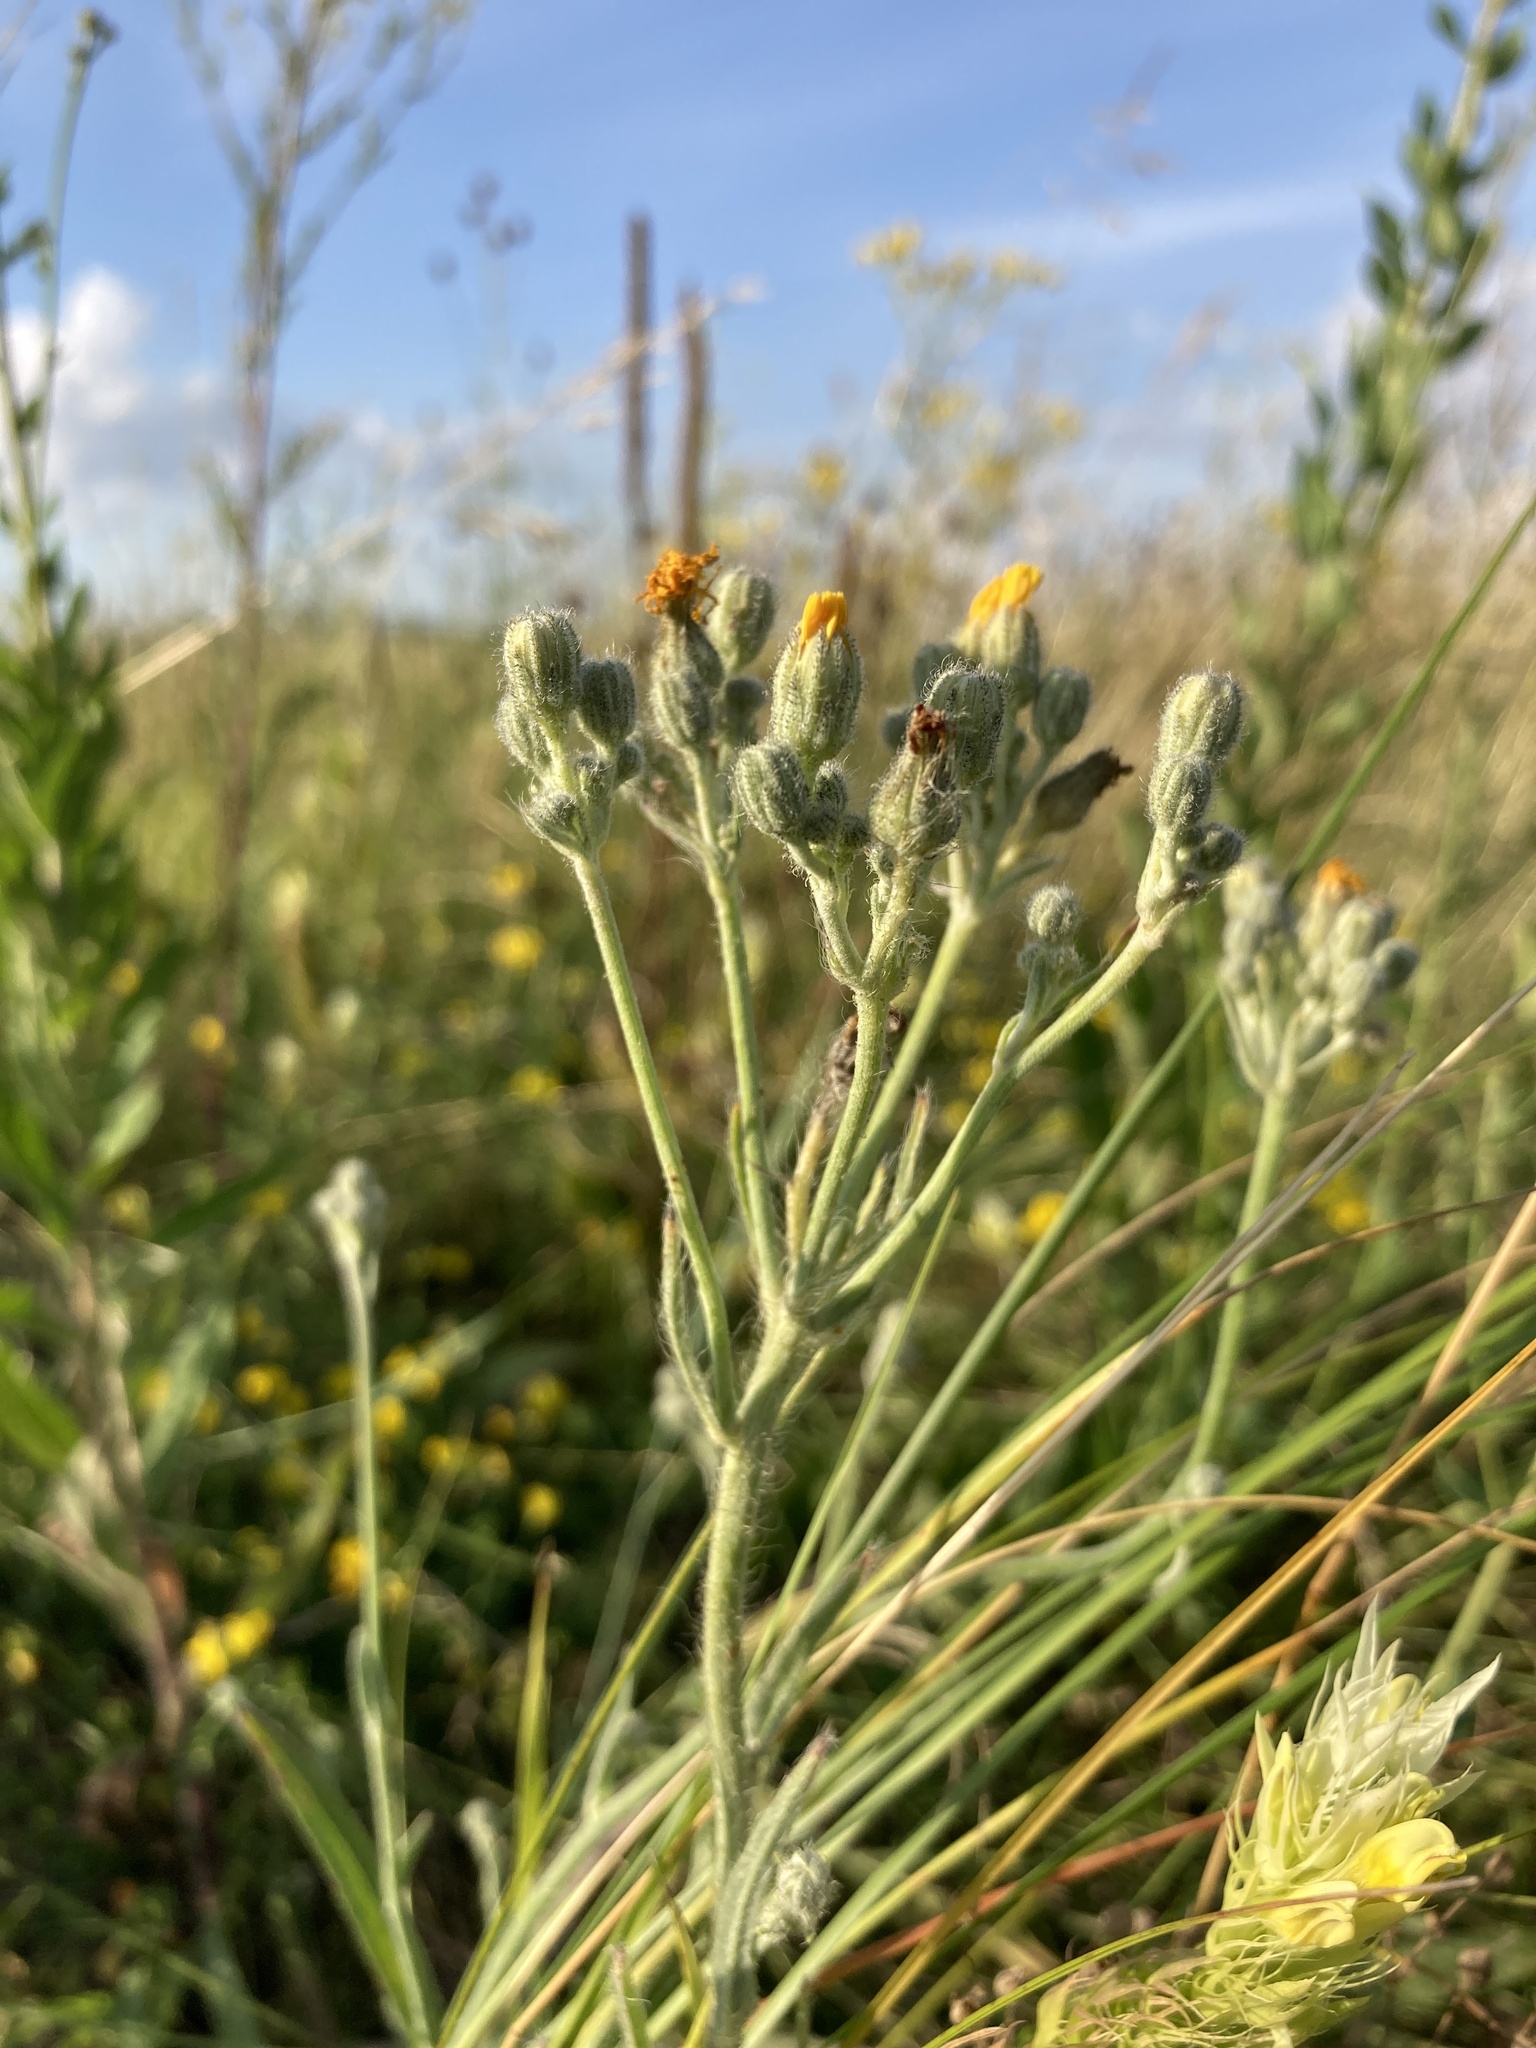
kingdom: Plantae
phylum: Tracheophyta
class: Magnoliopsida
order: Asterales
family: Asteraceae
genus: Pilosella
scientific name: Pilosella echioides
